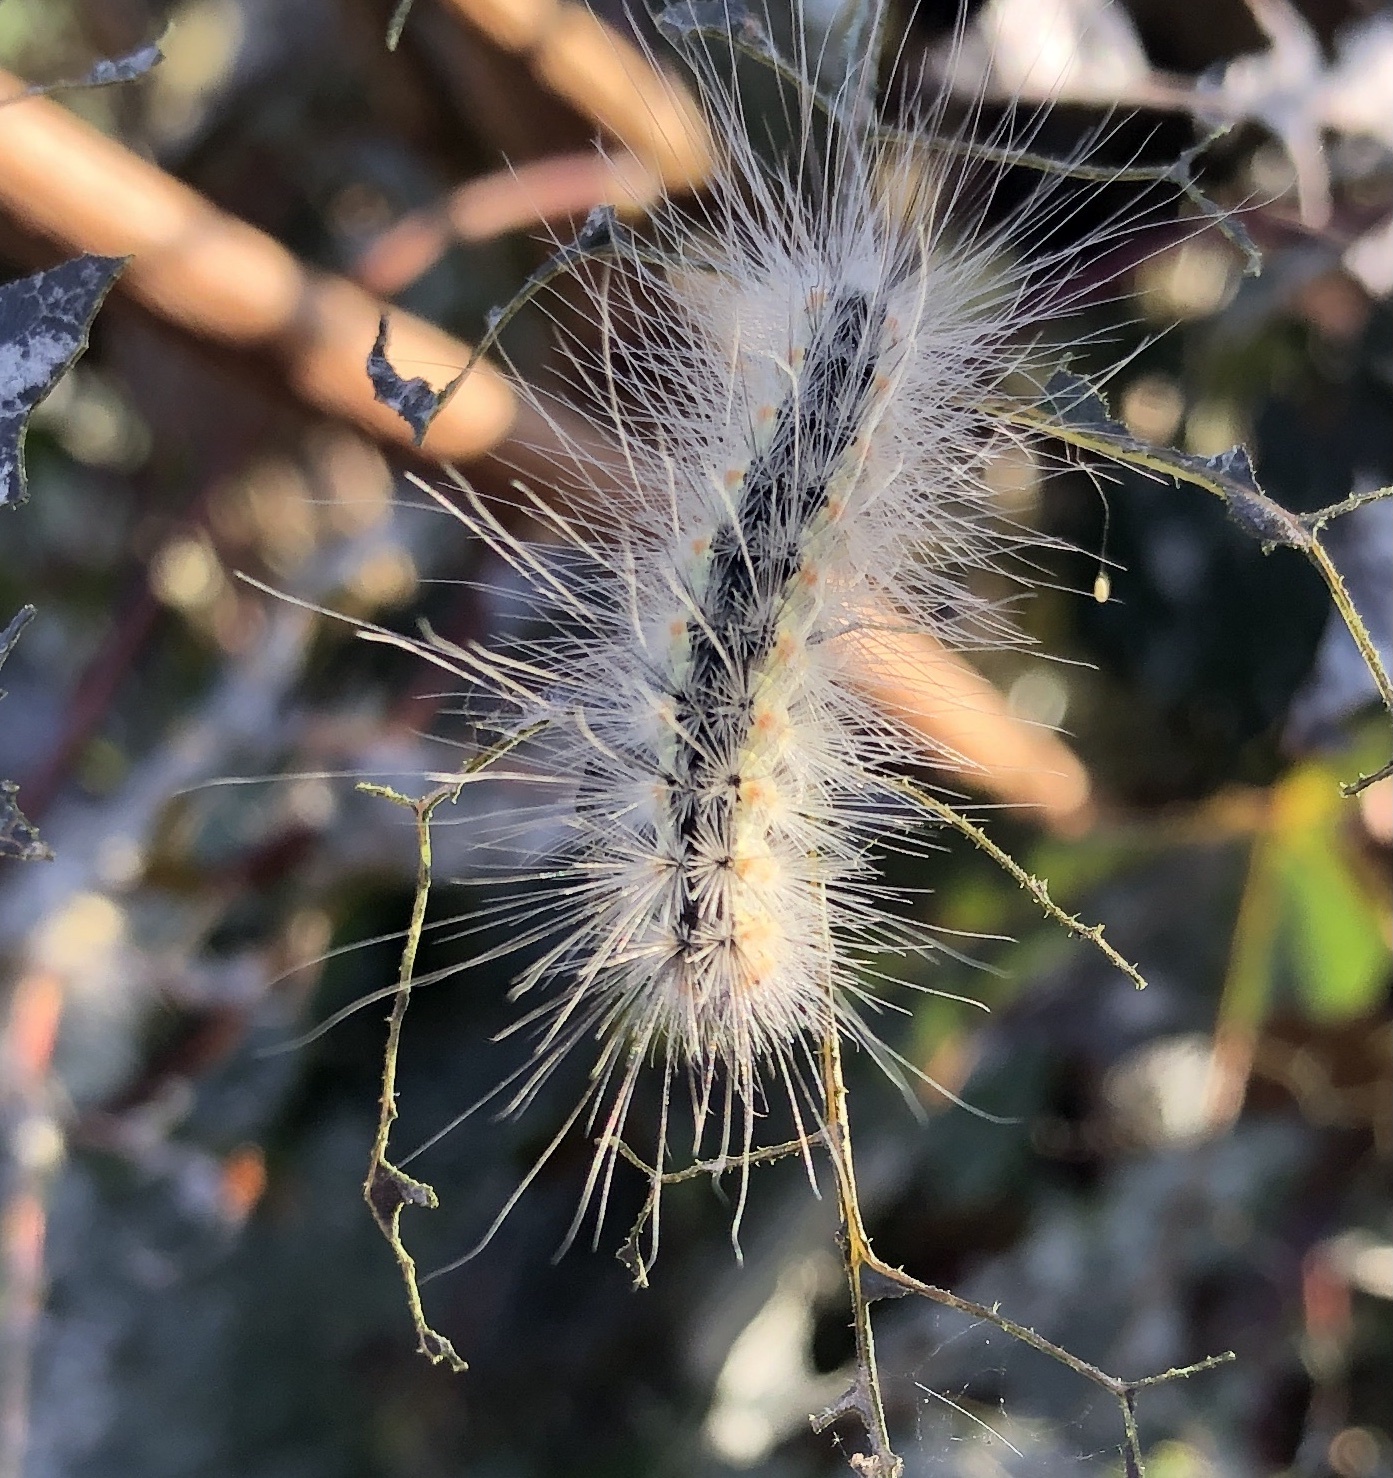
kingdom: Animalia
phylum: Arthropoda
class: Insecta
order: Lepidoptera
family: Erebidae
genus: Hyphantria
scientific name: Hyphantria cunea
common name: American white moth
